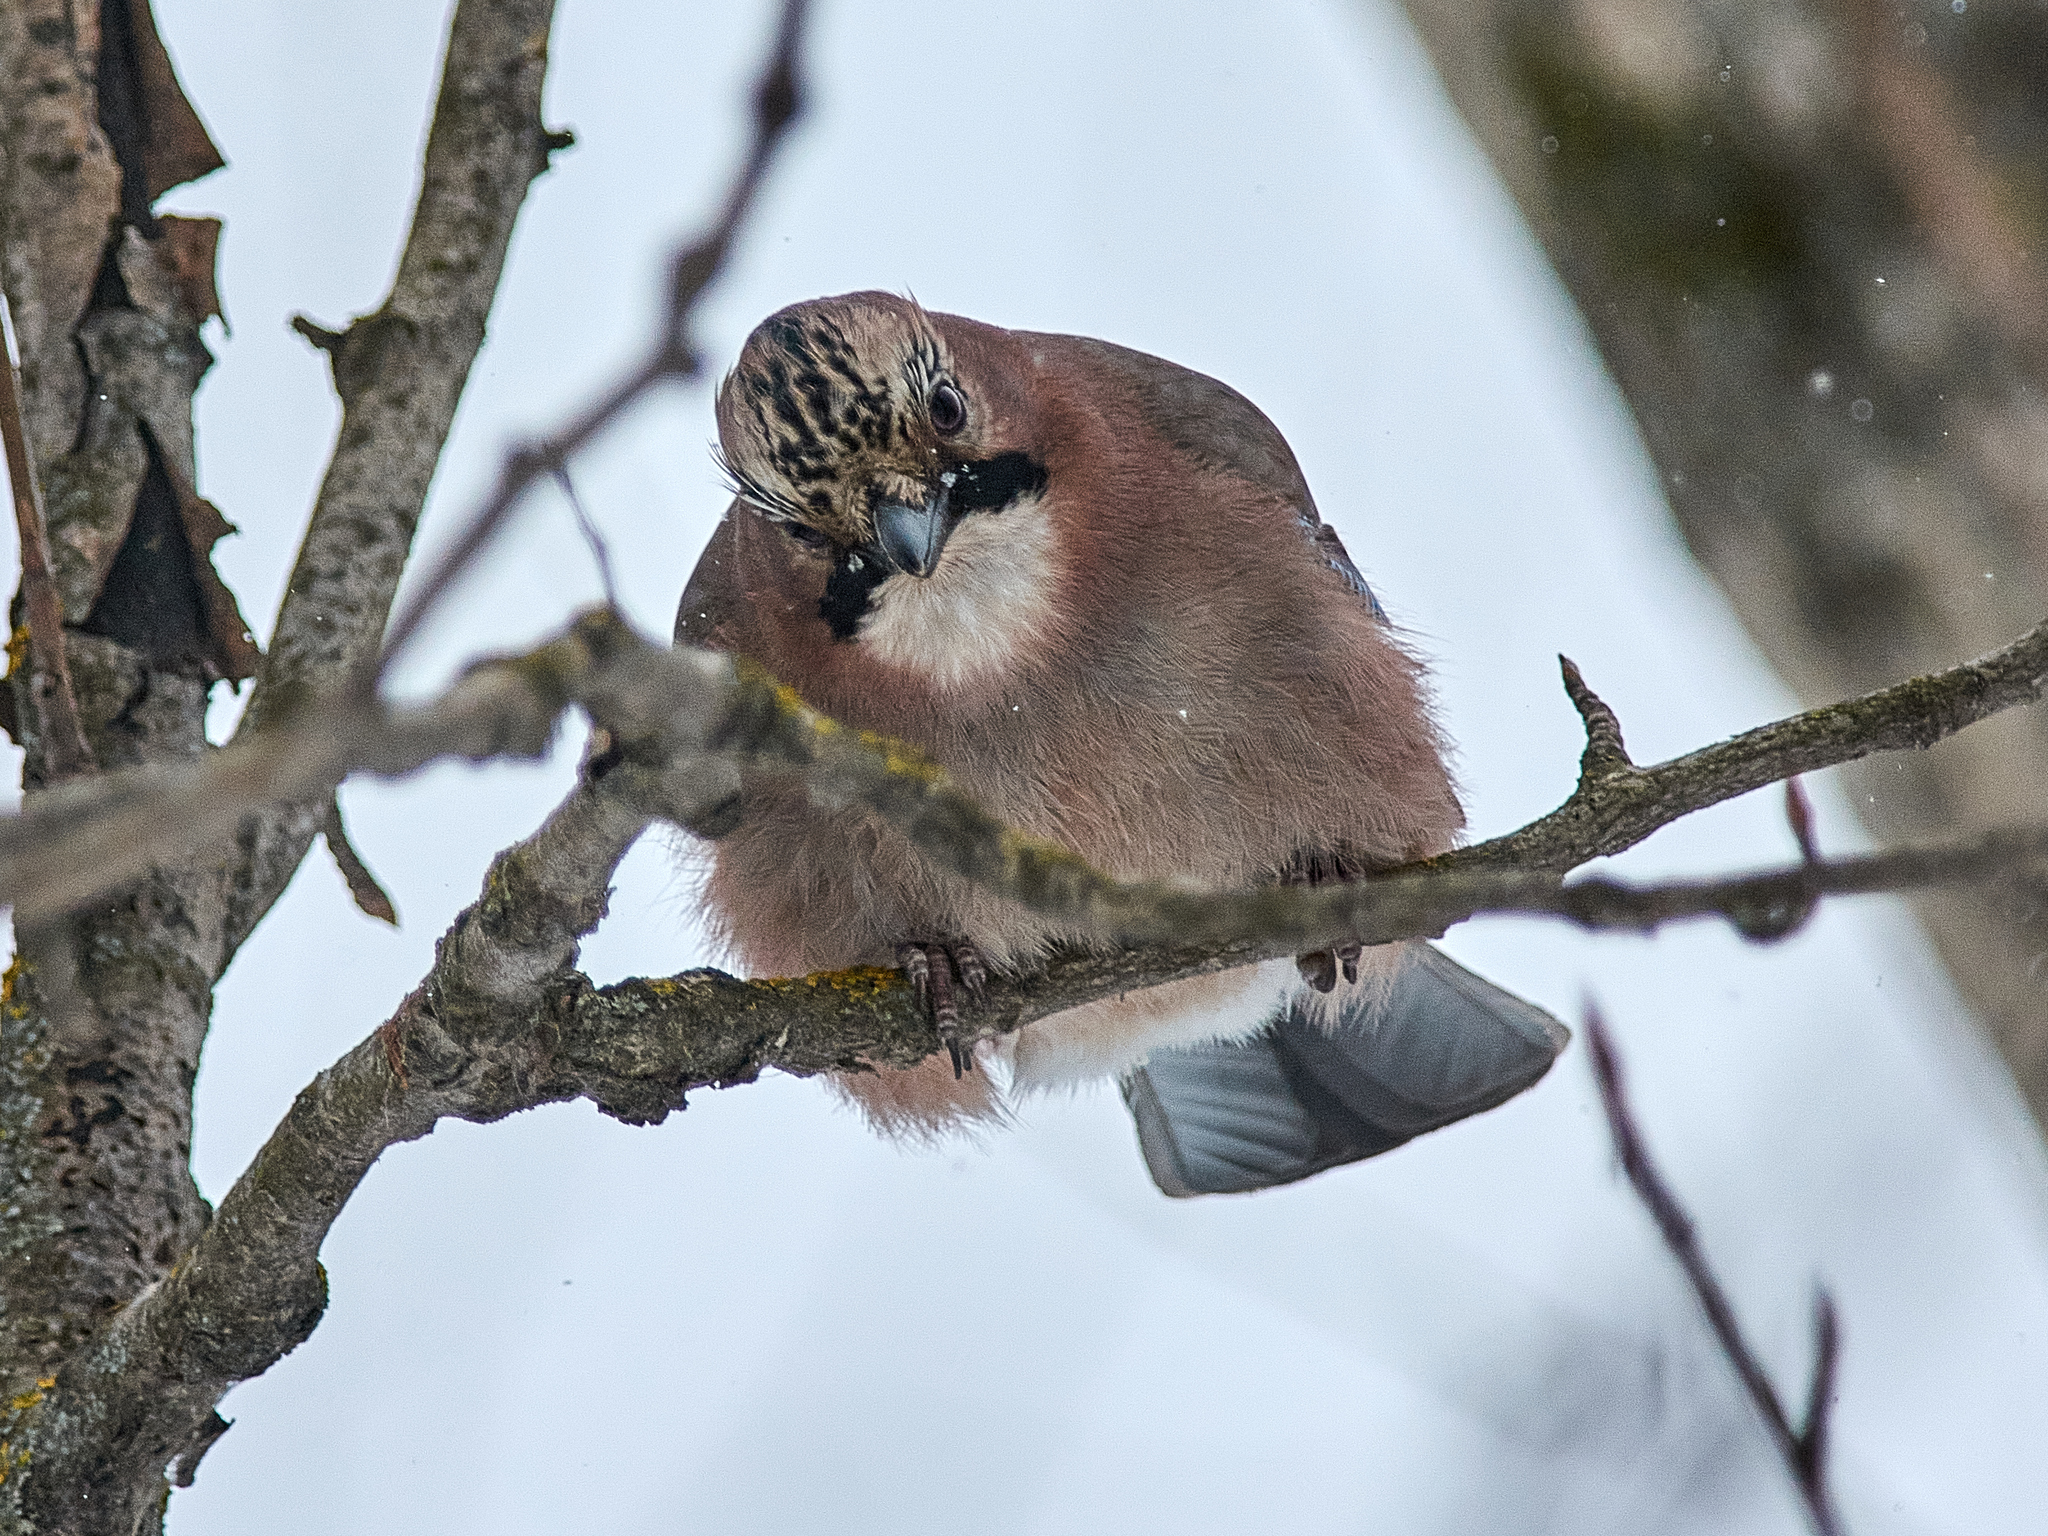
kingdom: Animalia
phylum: Chordata
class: Aves
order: Passeriformes
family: Corvidae
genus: Garrulus
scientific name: Garrulus glandarius
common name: Eurasian jay
